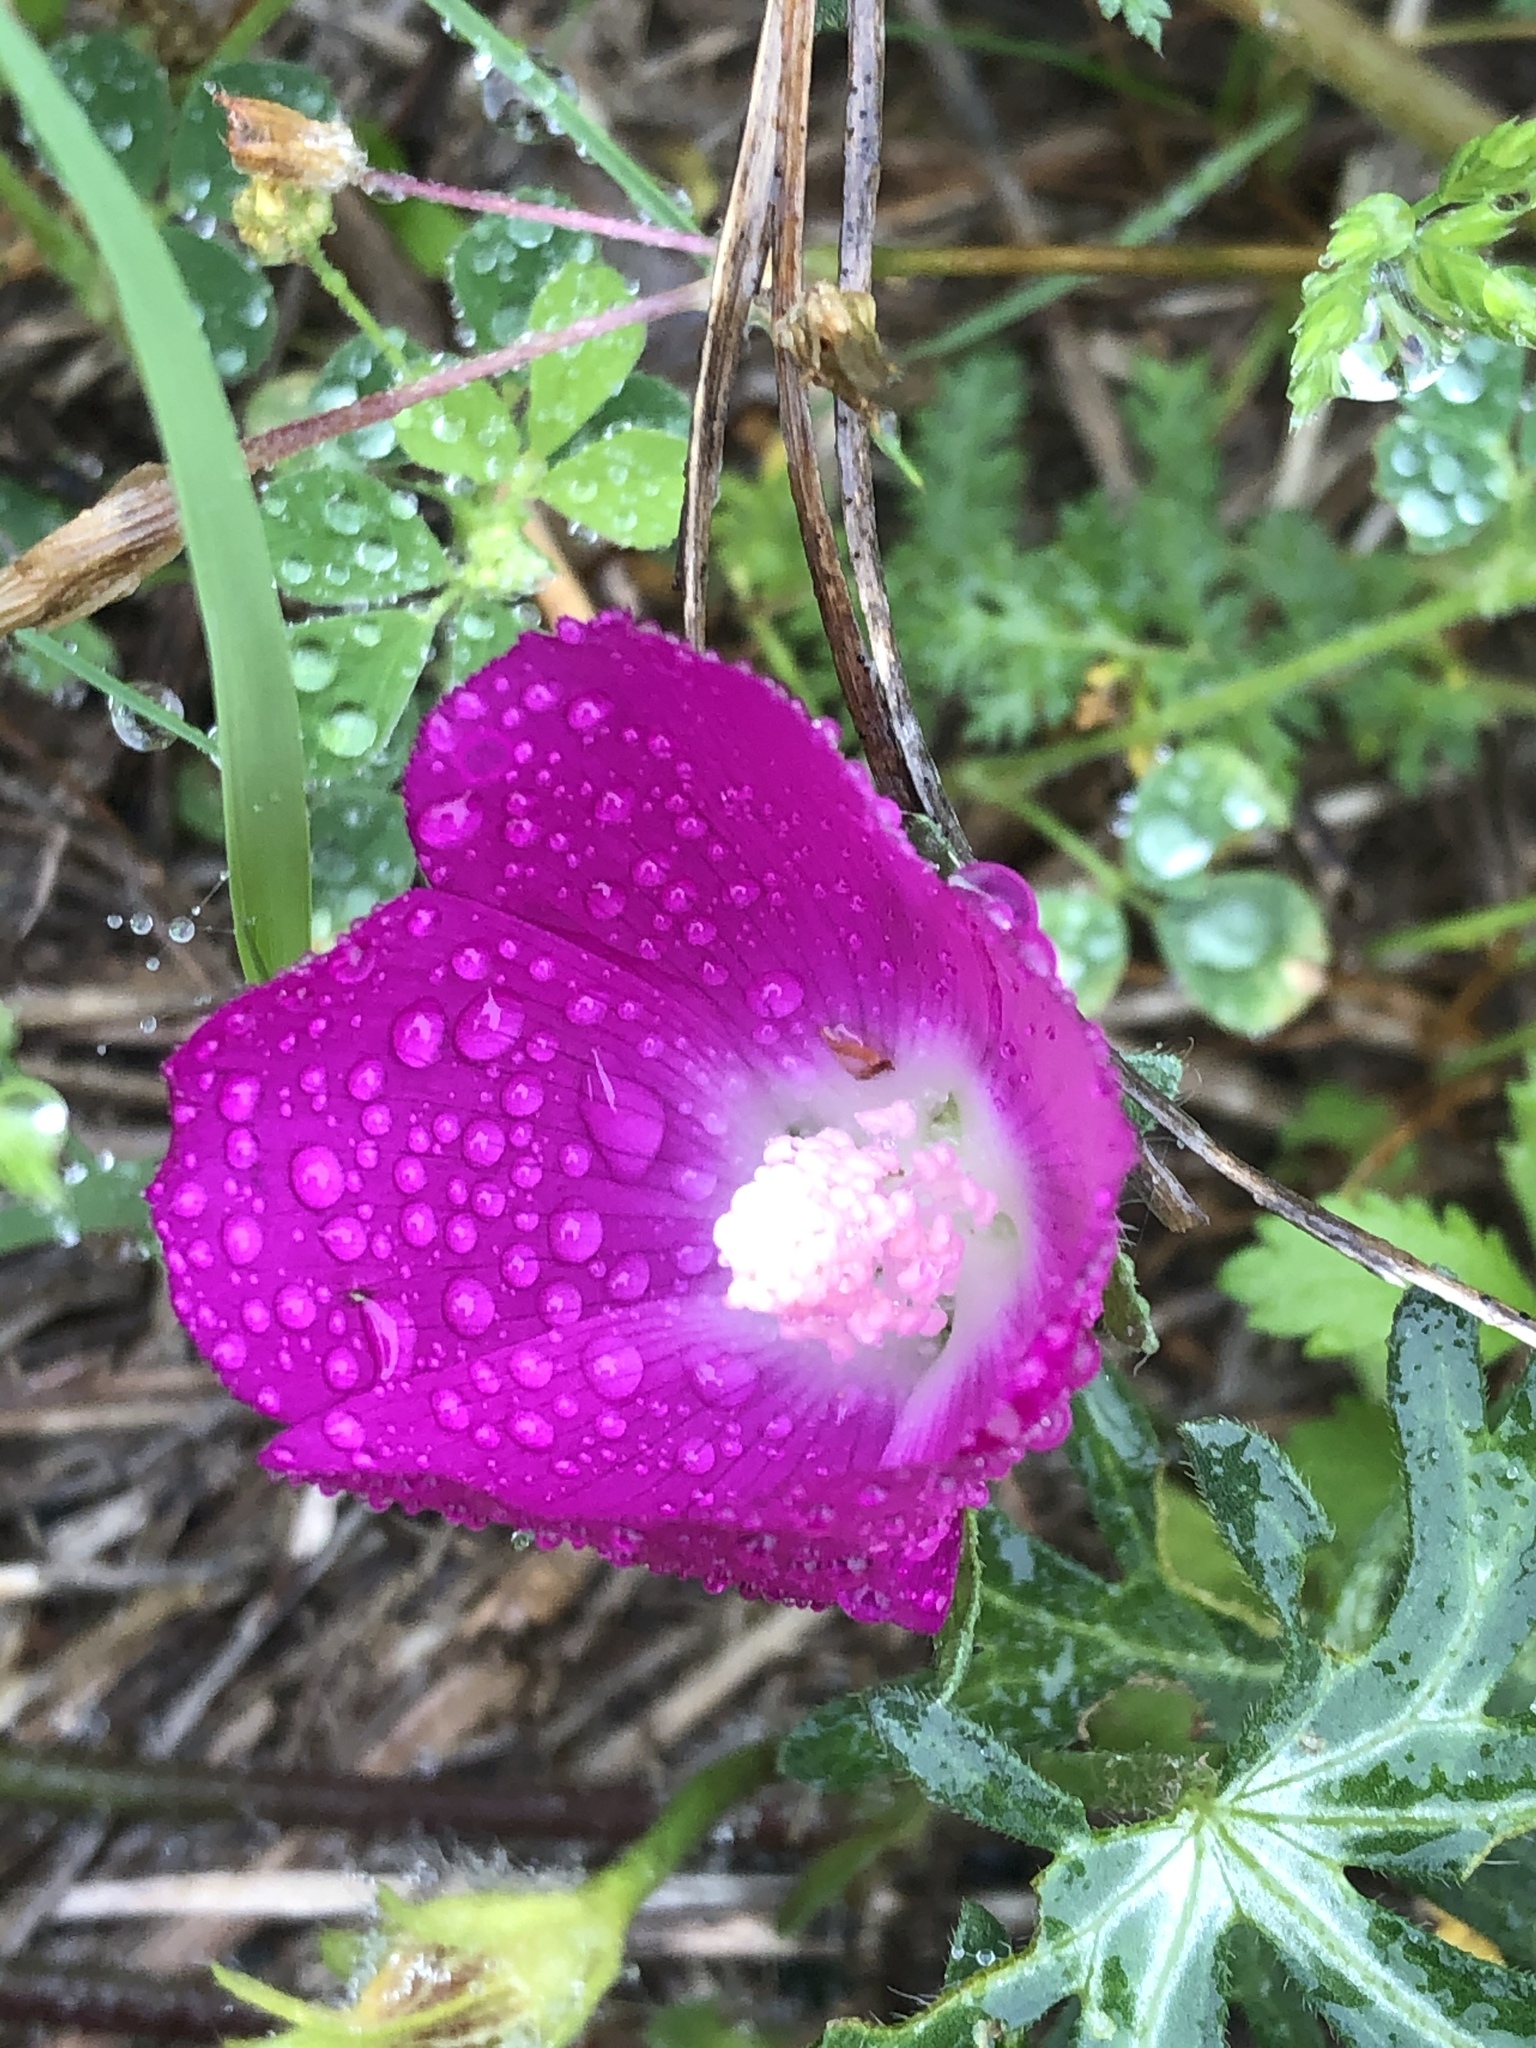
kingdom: Plantae
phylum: Tracheophyta
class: Magnoliopsida
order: Malvales
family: Malvaceae
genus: Callirhoe
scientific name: Callirhoe involucrata
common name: Purple poppy-mallow
